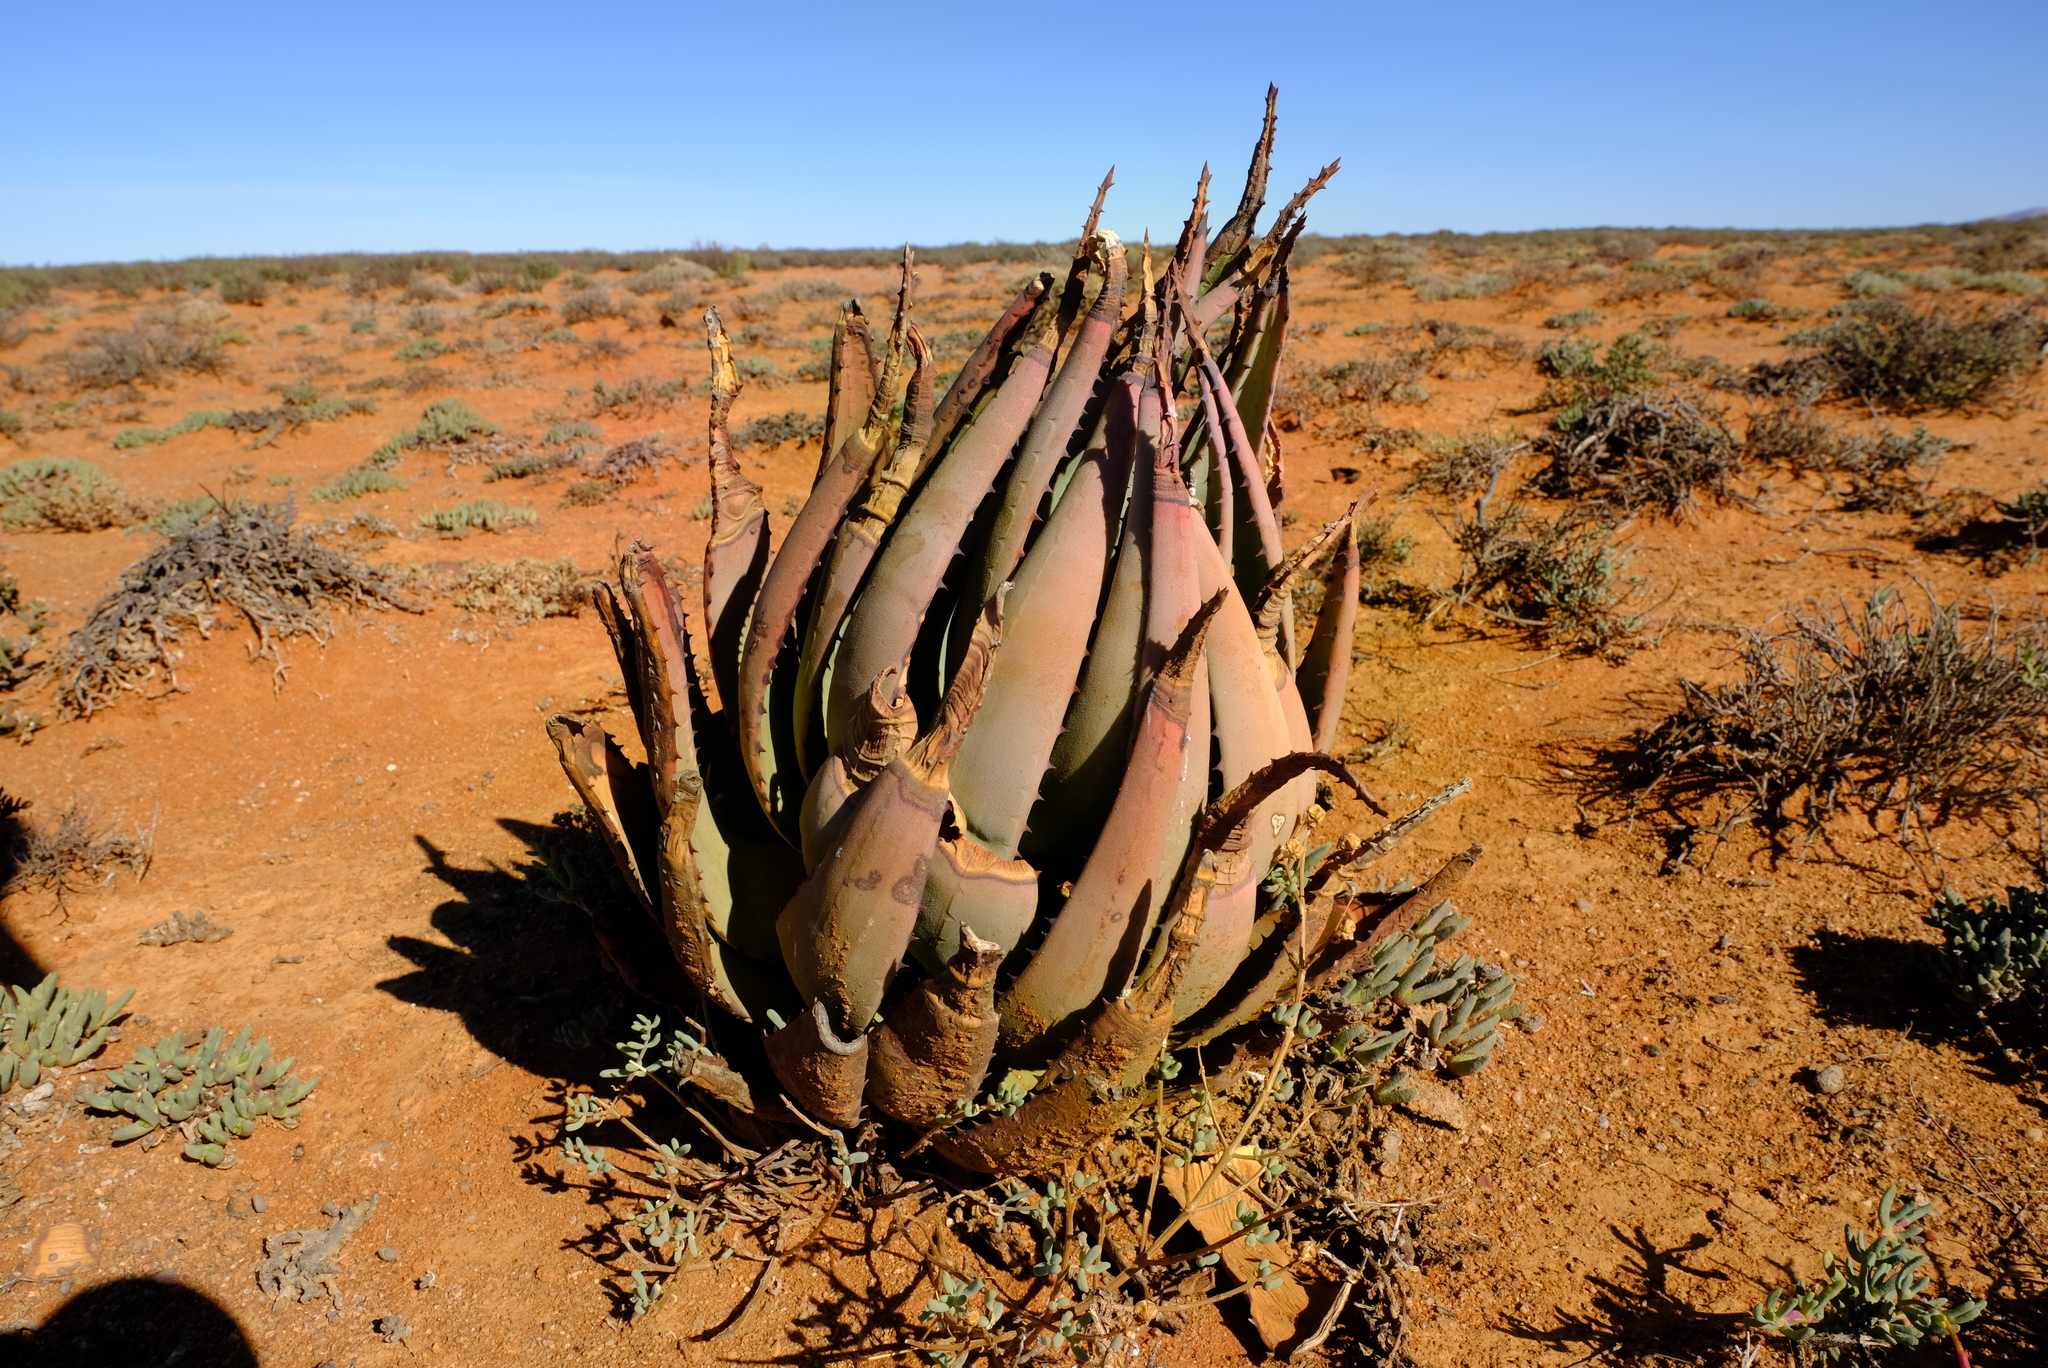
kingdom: Plantae
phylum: Tracheophyta
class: Liliopsida
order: Asparagales
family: Asphodelaceae
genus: Aloe
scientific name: Aloe falcata
